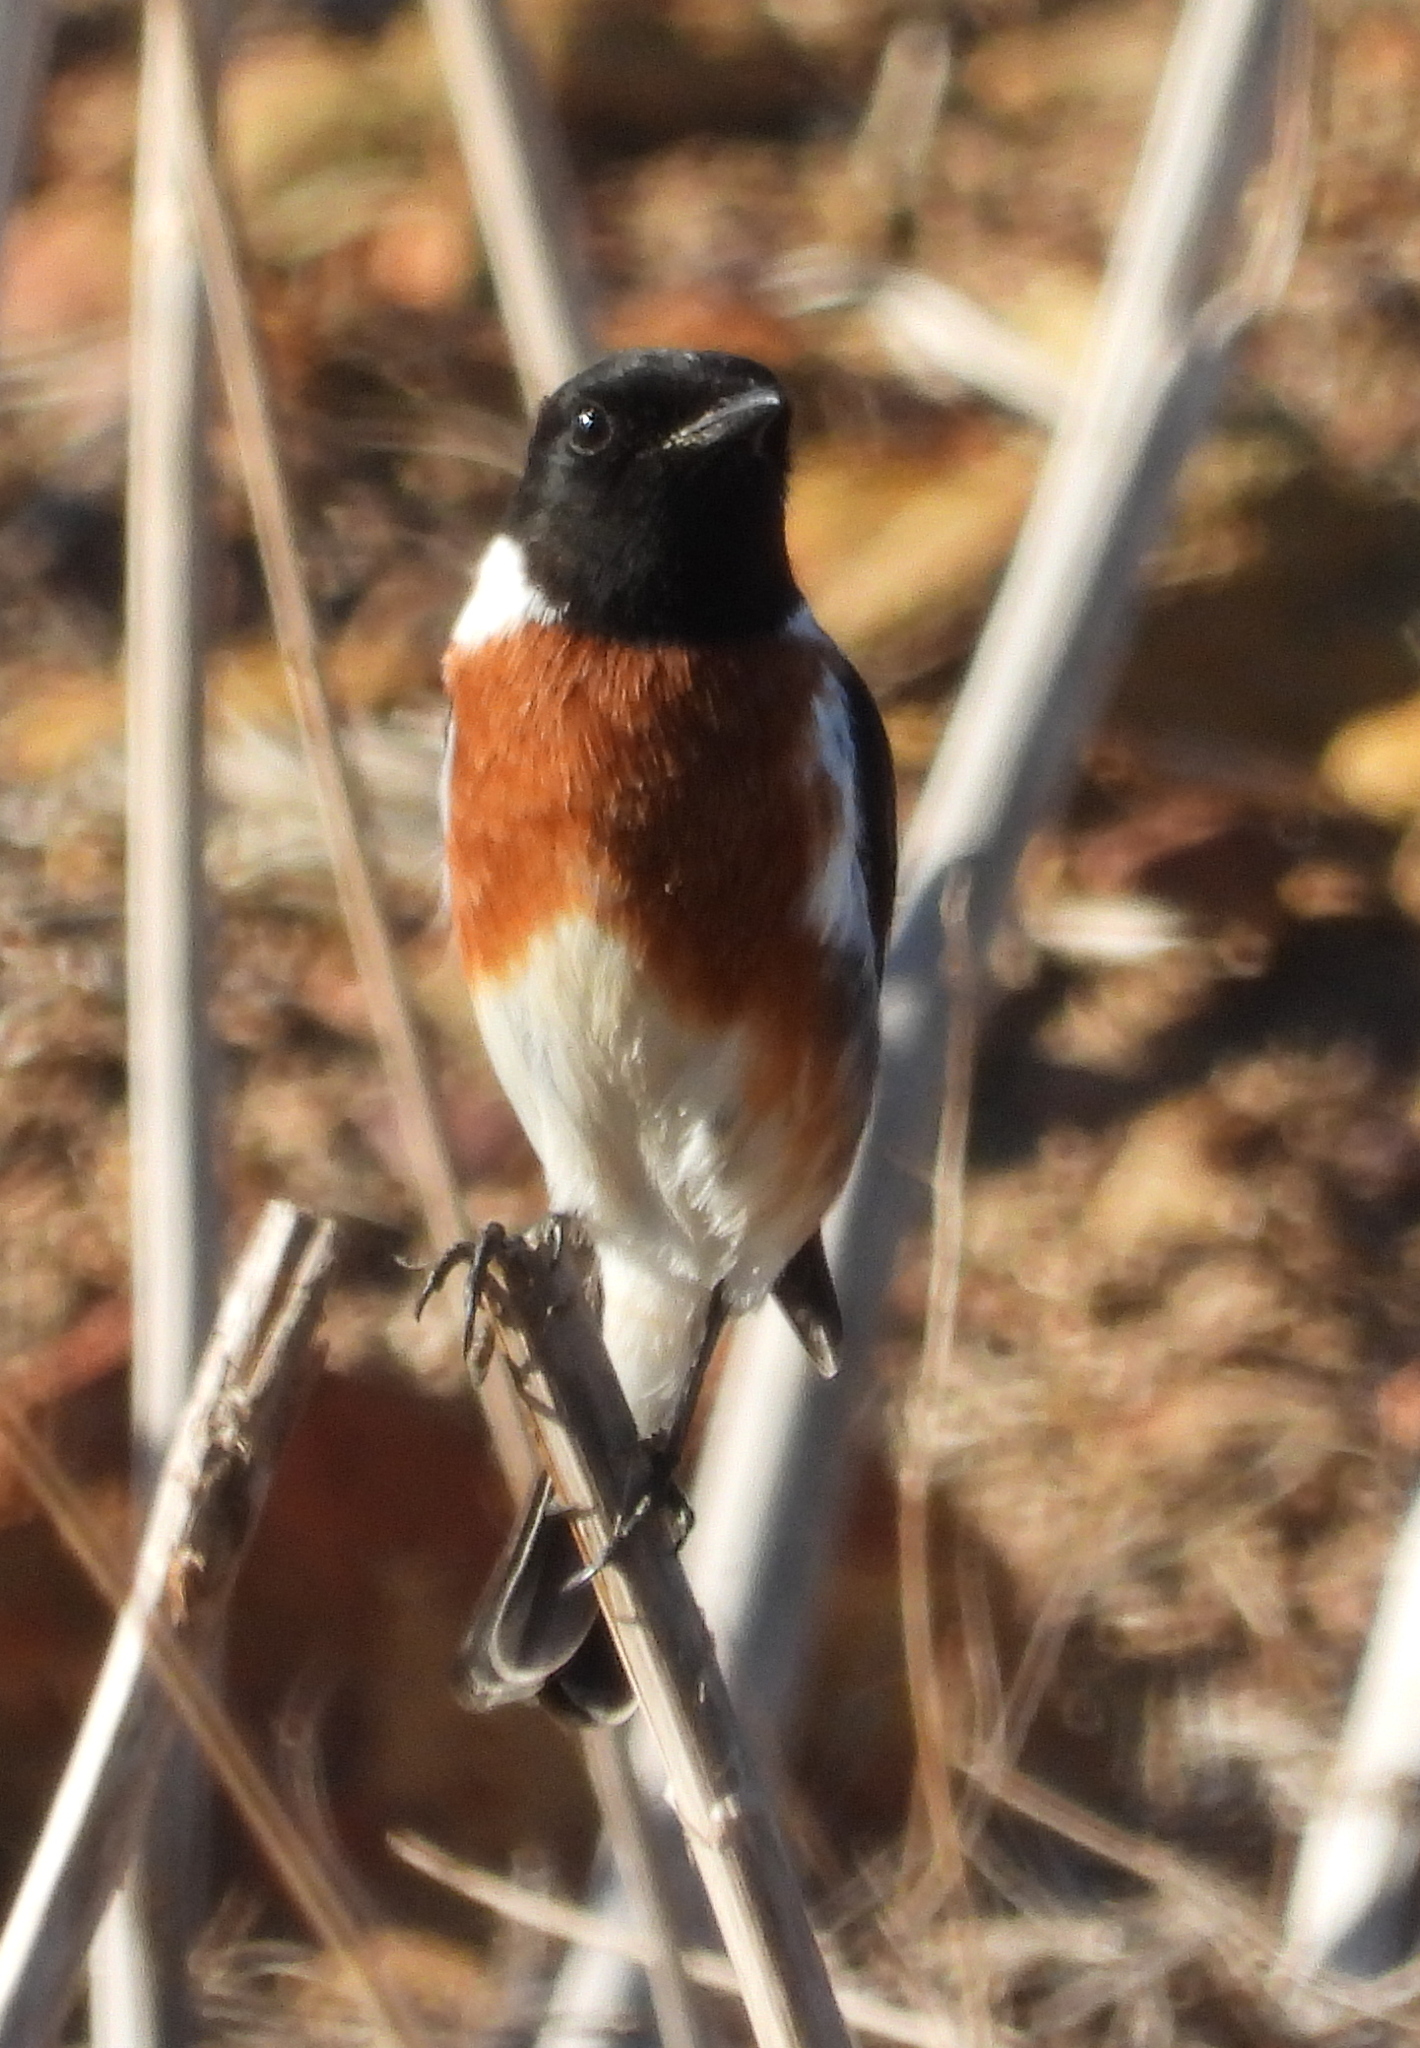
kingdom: Animalia
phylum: Chordata
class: Aves
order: Passeriformes
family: Muscicapidae
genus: Saxicola
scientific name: Saxicola torquatus
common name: African stonechat
